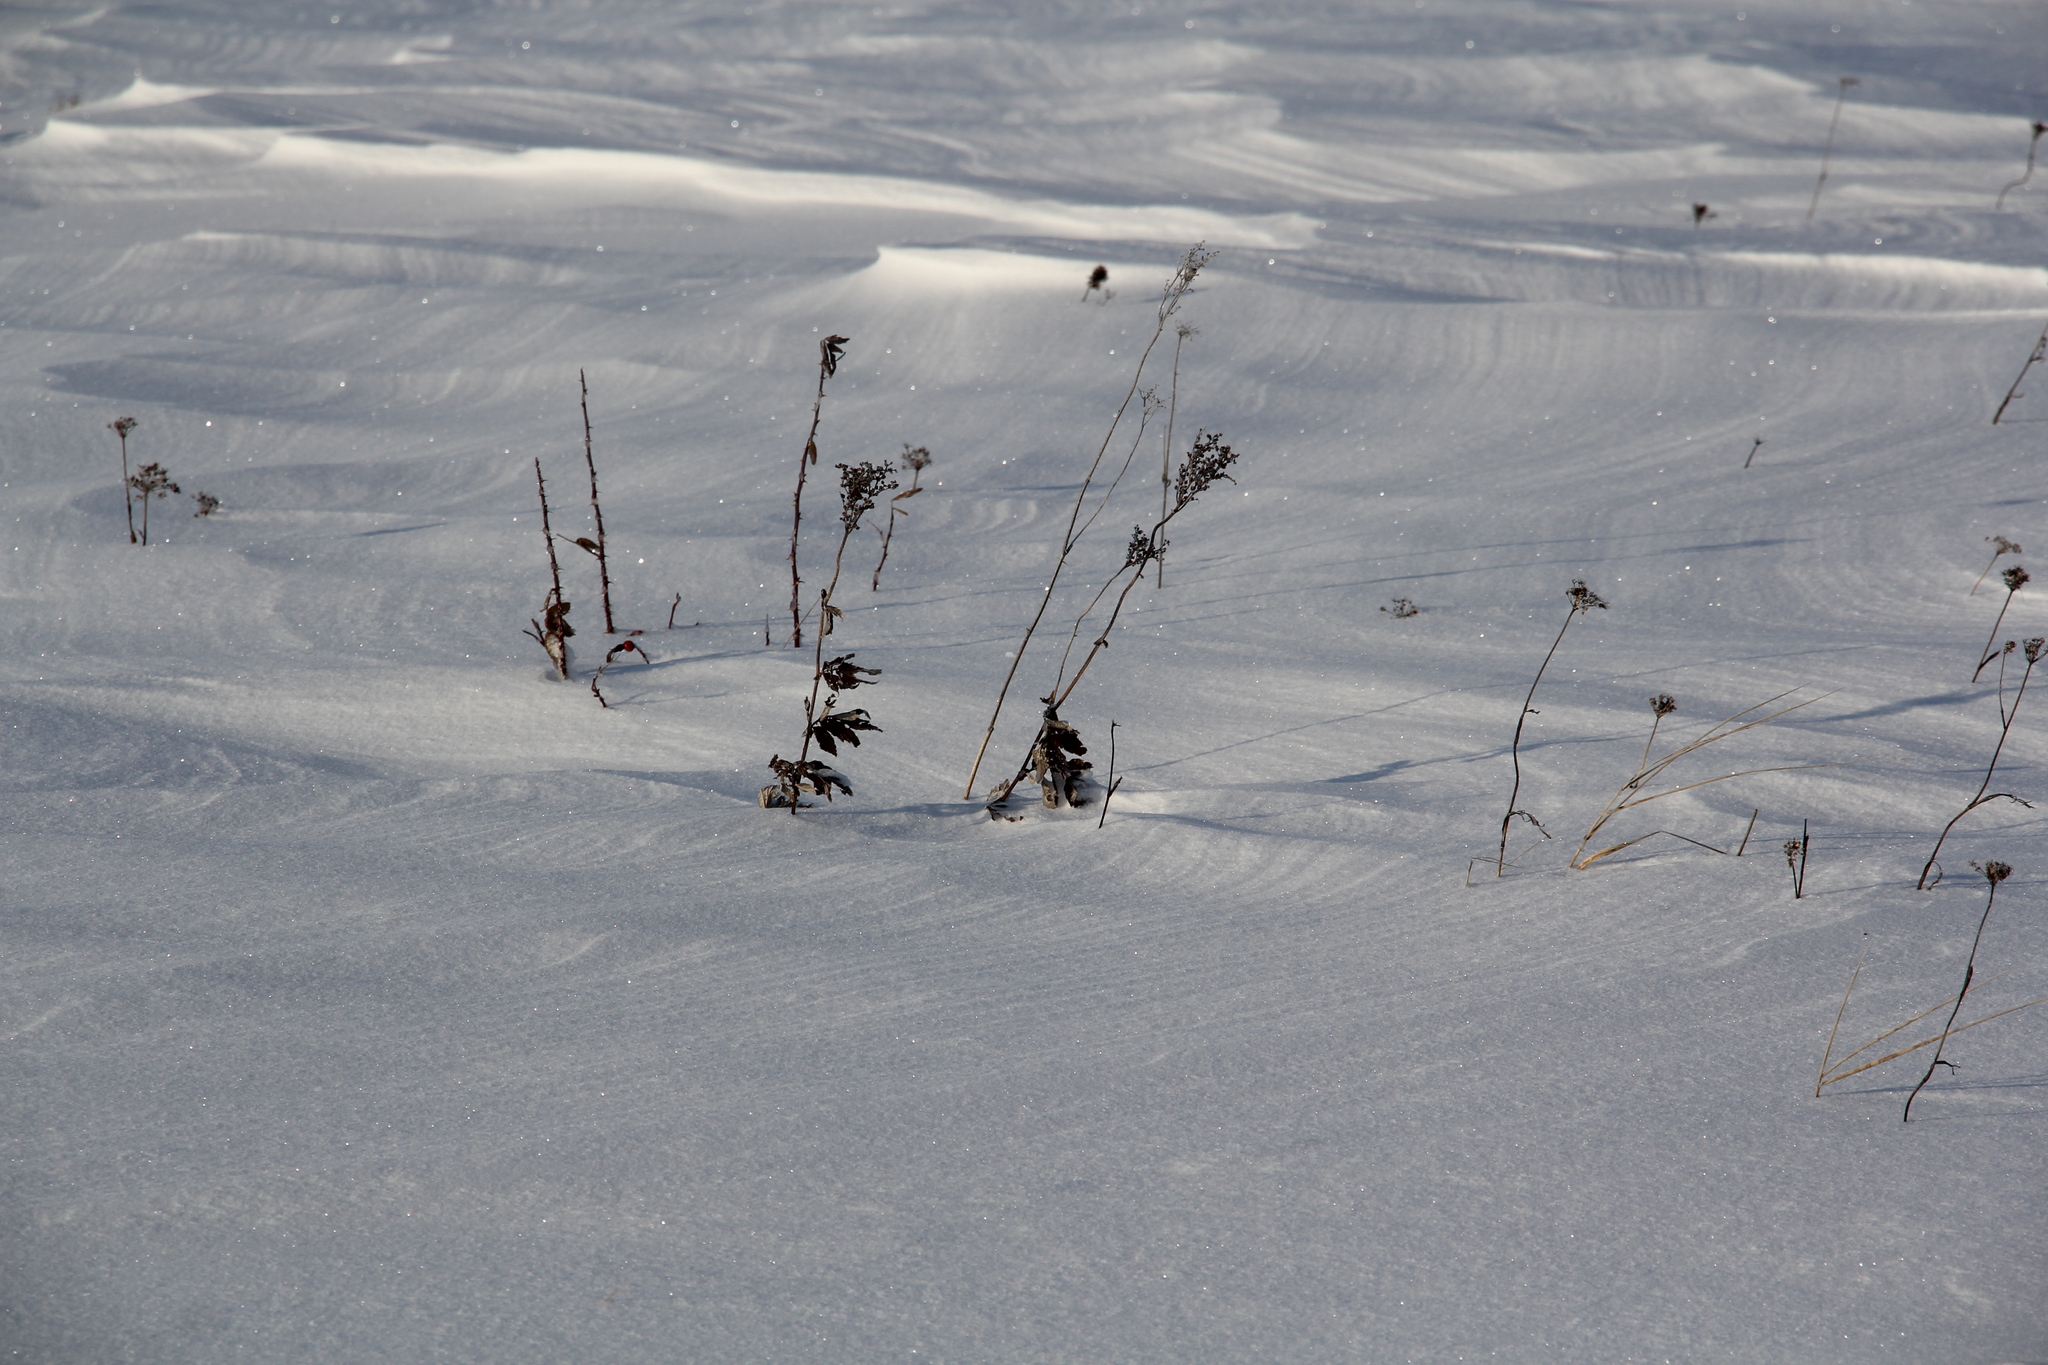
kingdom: Plantae
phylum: Tracheophyta
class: Magnoliopsida
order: Rosales
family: Rosaceae
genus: Filipendula
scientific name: Filipendula ulmaria
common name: Meadowsweet
